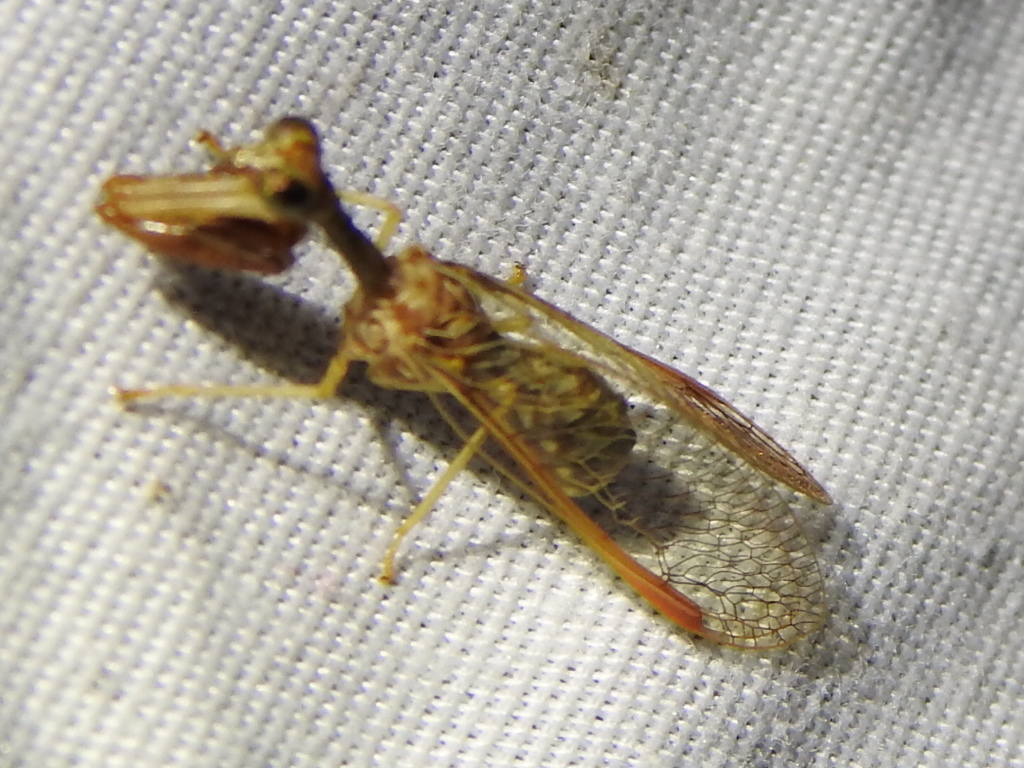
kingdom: Animalia
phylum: Arthropoda
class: Insecta
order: Neuroptera
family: Mantispidae
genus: Dicromantispa
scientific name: Dicromantispa sayi
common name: Say's mantidfly
